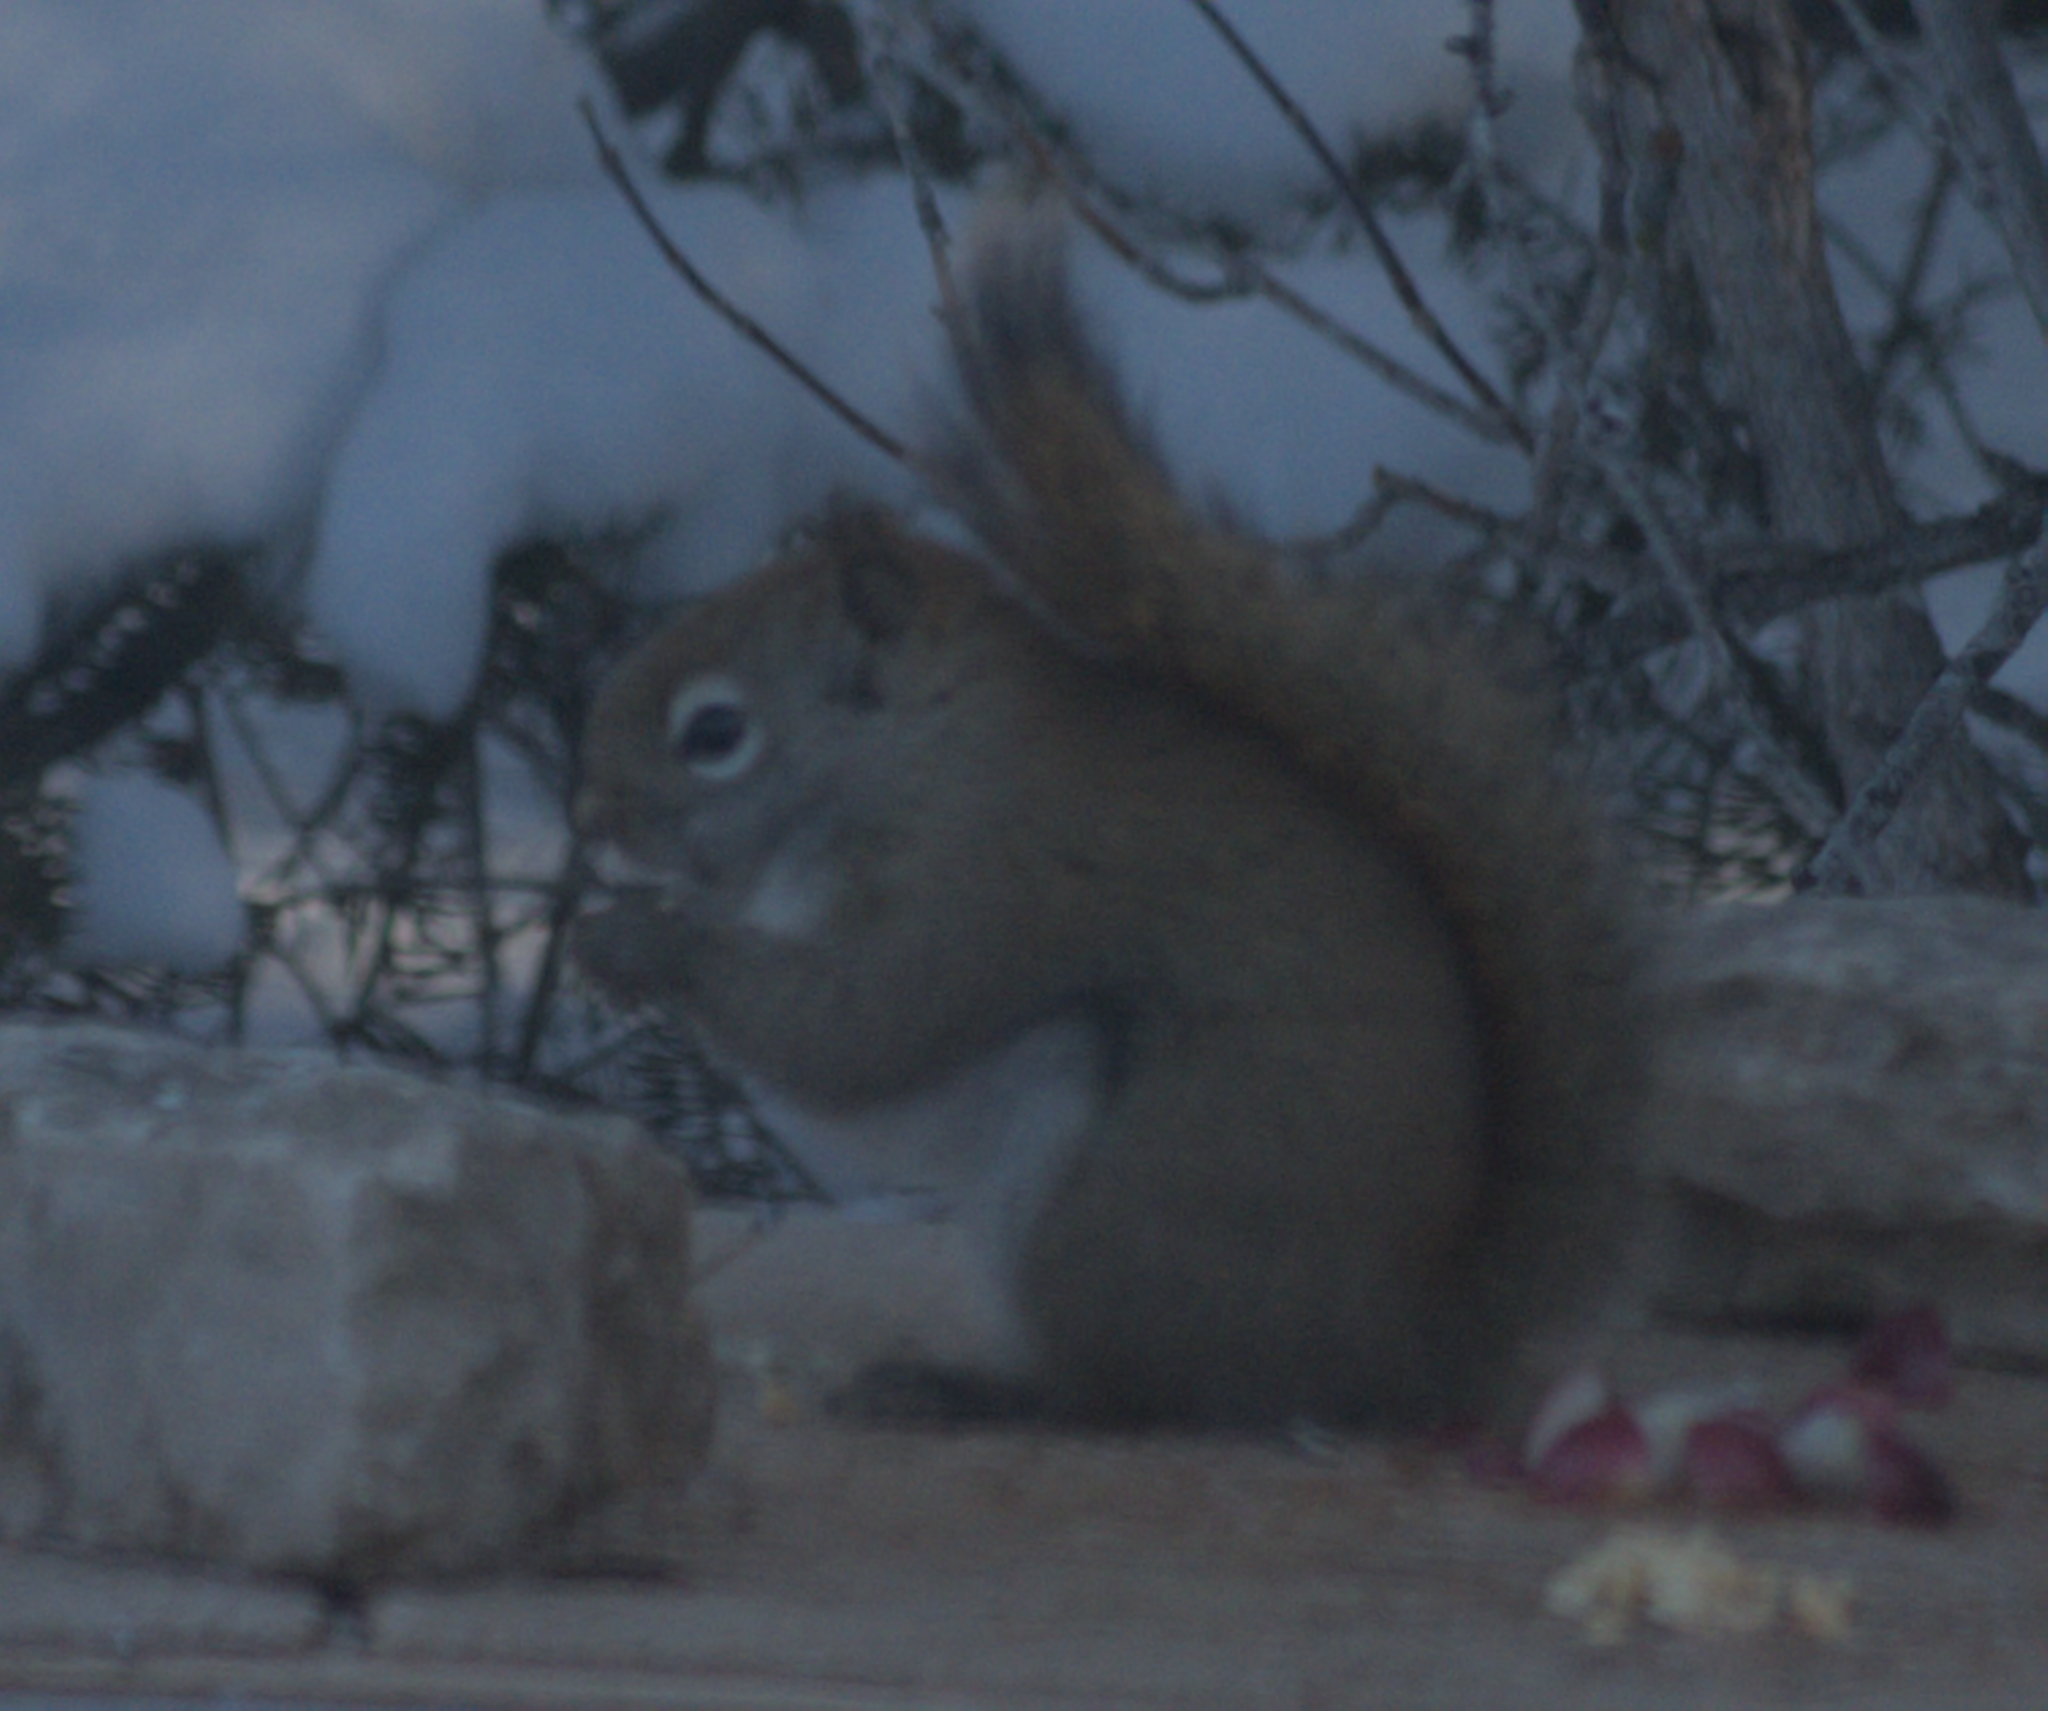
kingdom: Animalia
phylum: Chordata
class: Mammalia
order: Rodentia
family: Sciuridae
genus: Tamiasciurus
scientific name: Tamiasciurus hudsonicus
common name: Red squirrel
